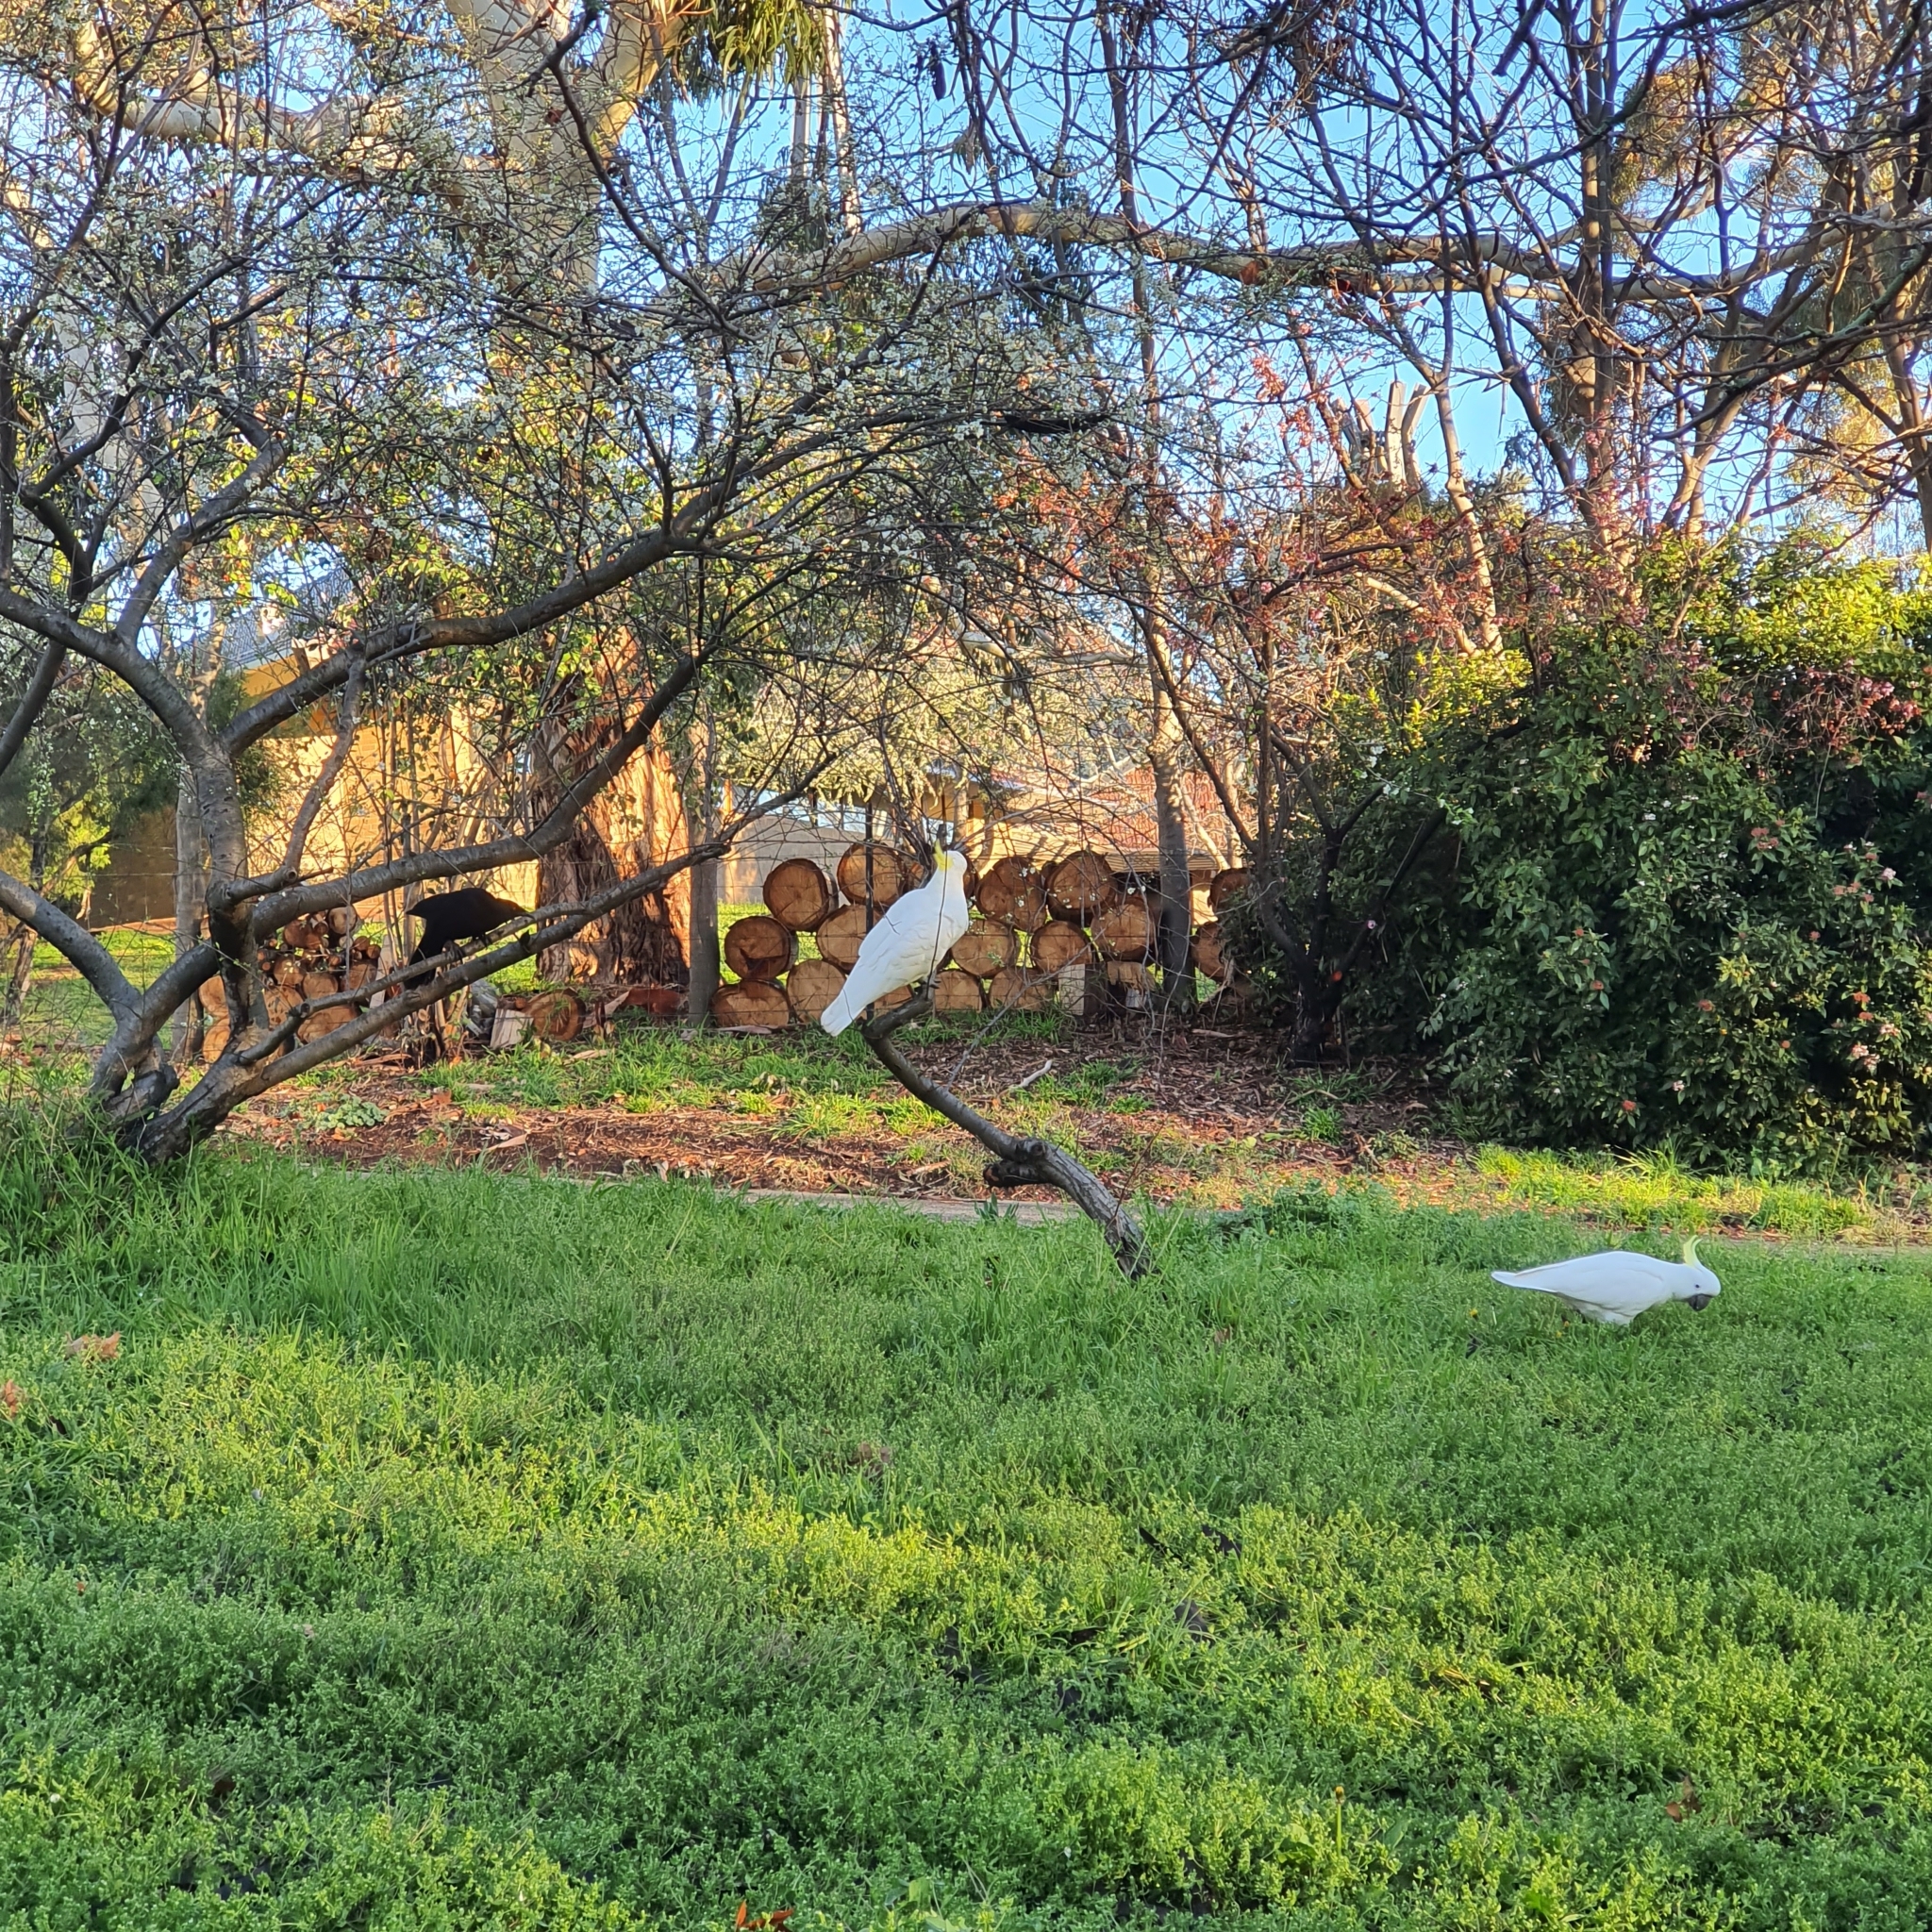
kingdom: Animalia
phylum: Chordata
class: Aves
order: Psittaciformes
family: Psittacidae
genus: Cacatua
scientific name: Cacatua galerita
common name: Sulphur-crested cockatoo
